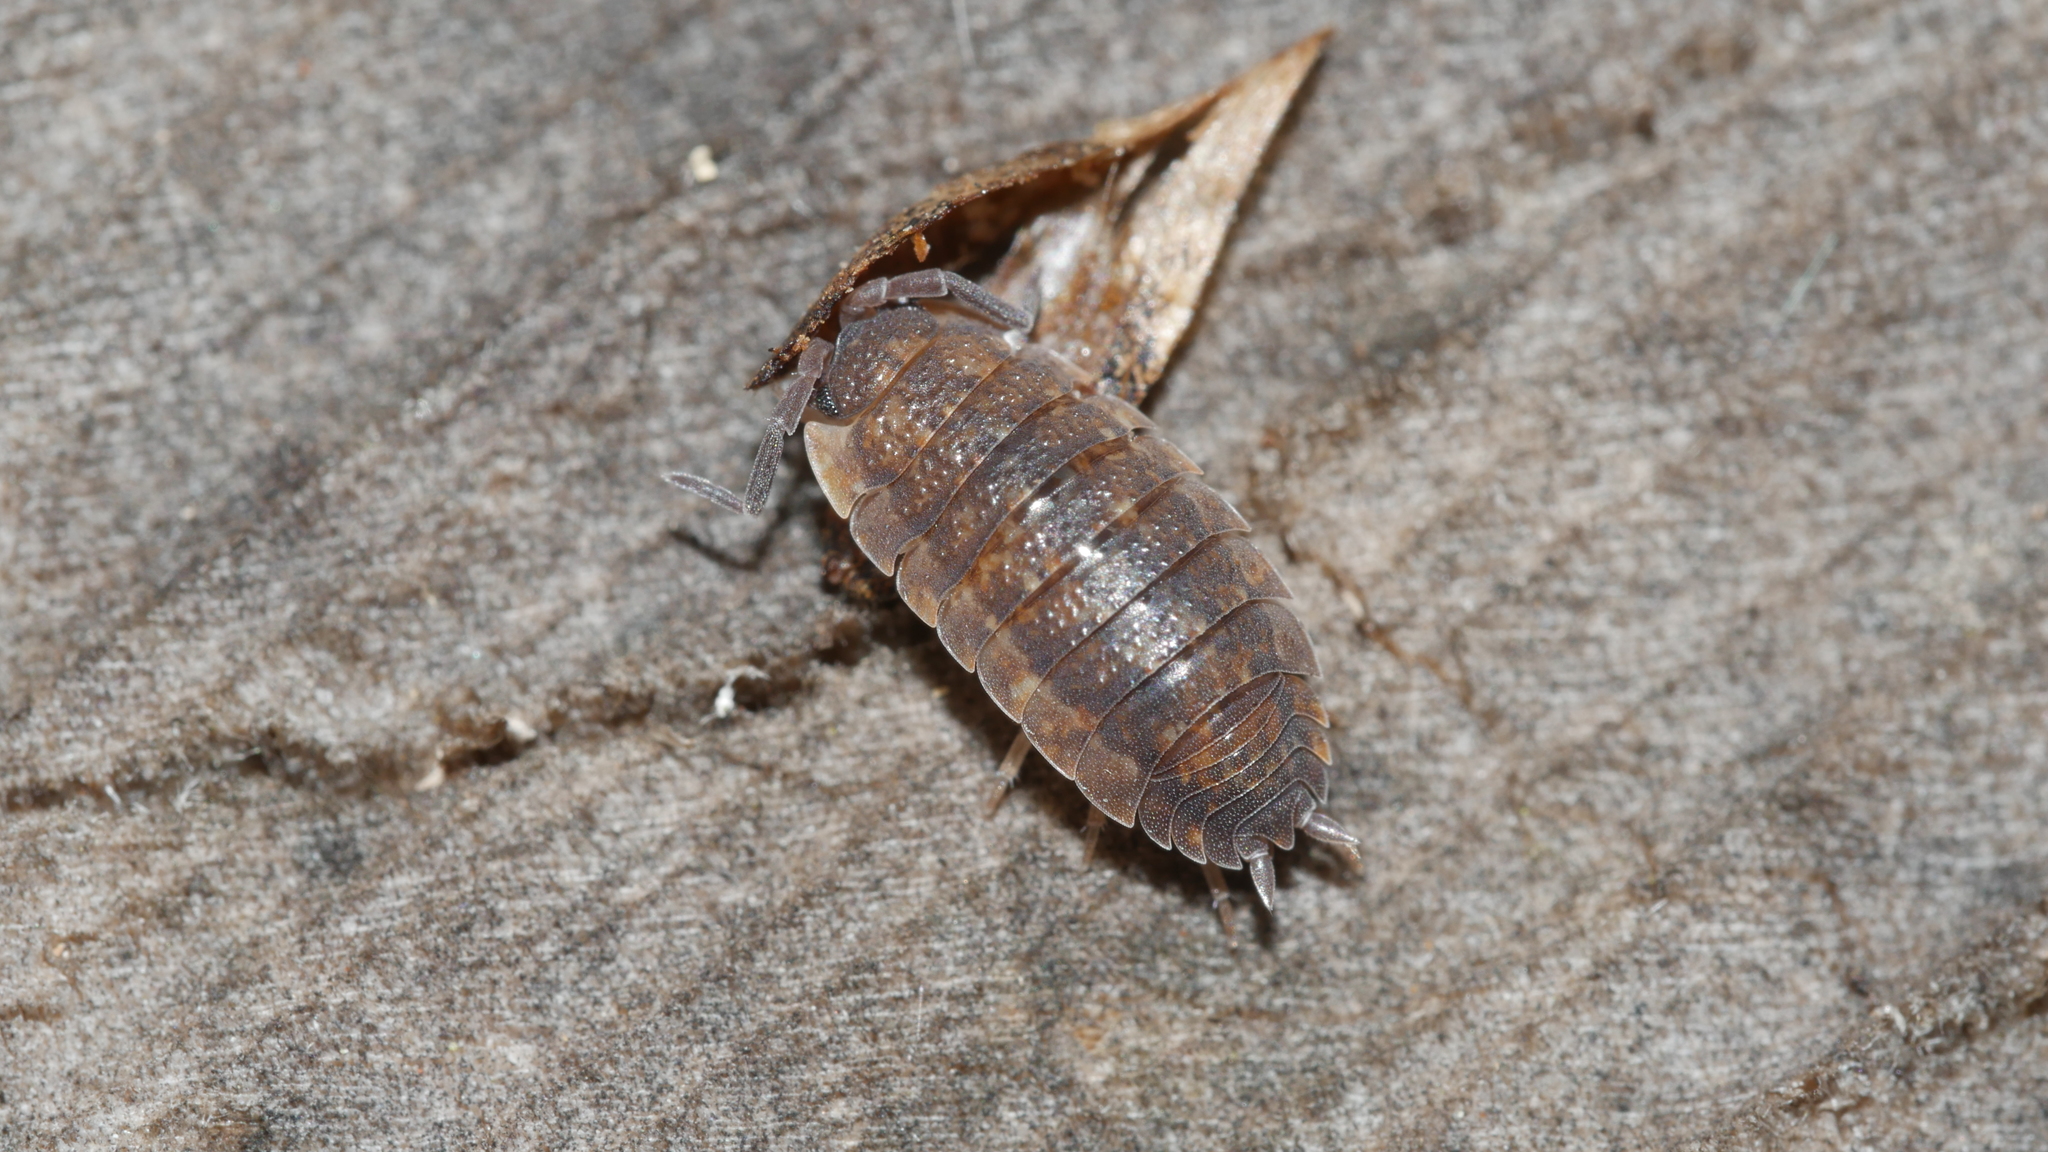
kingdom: Animalia
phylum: Arthropoda
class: Malacostraca
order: Isopoda
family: Porcellionidae
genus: Porcellio
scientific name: Porcellio scaber
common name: Common rough woodlouse
